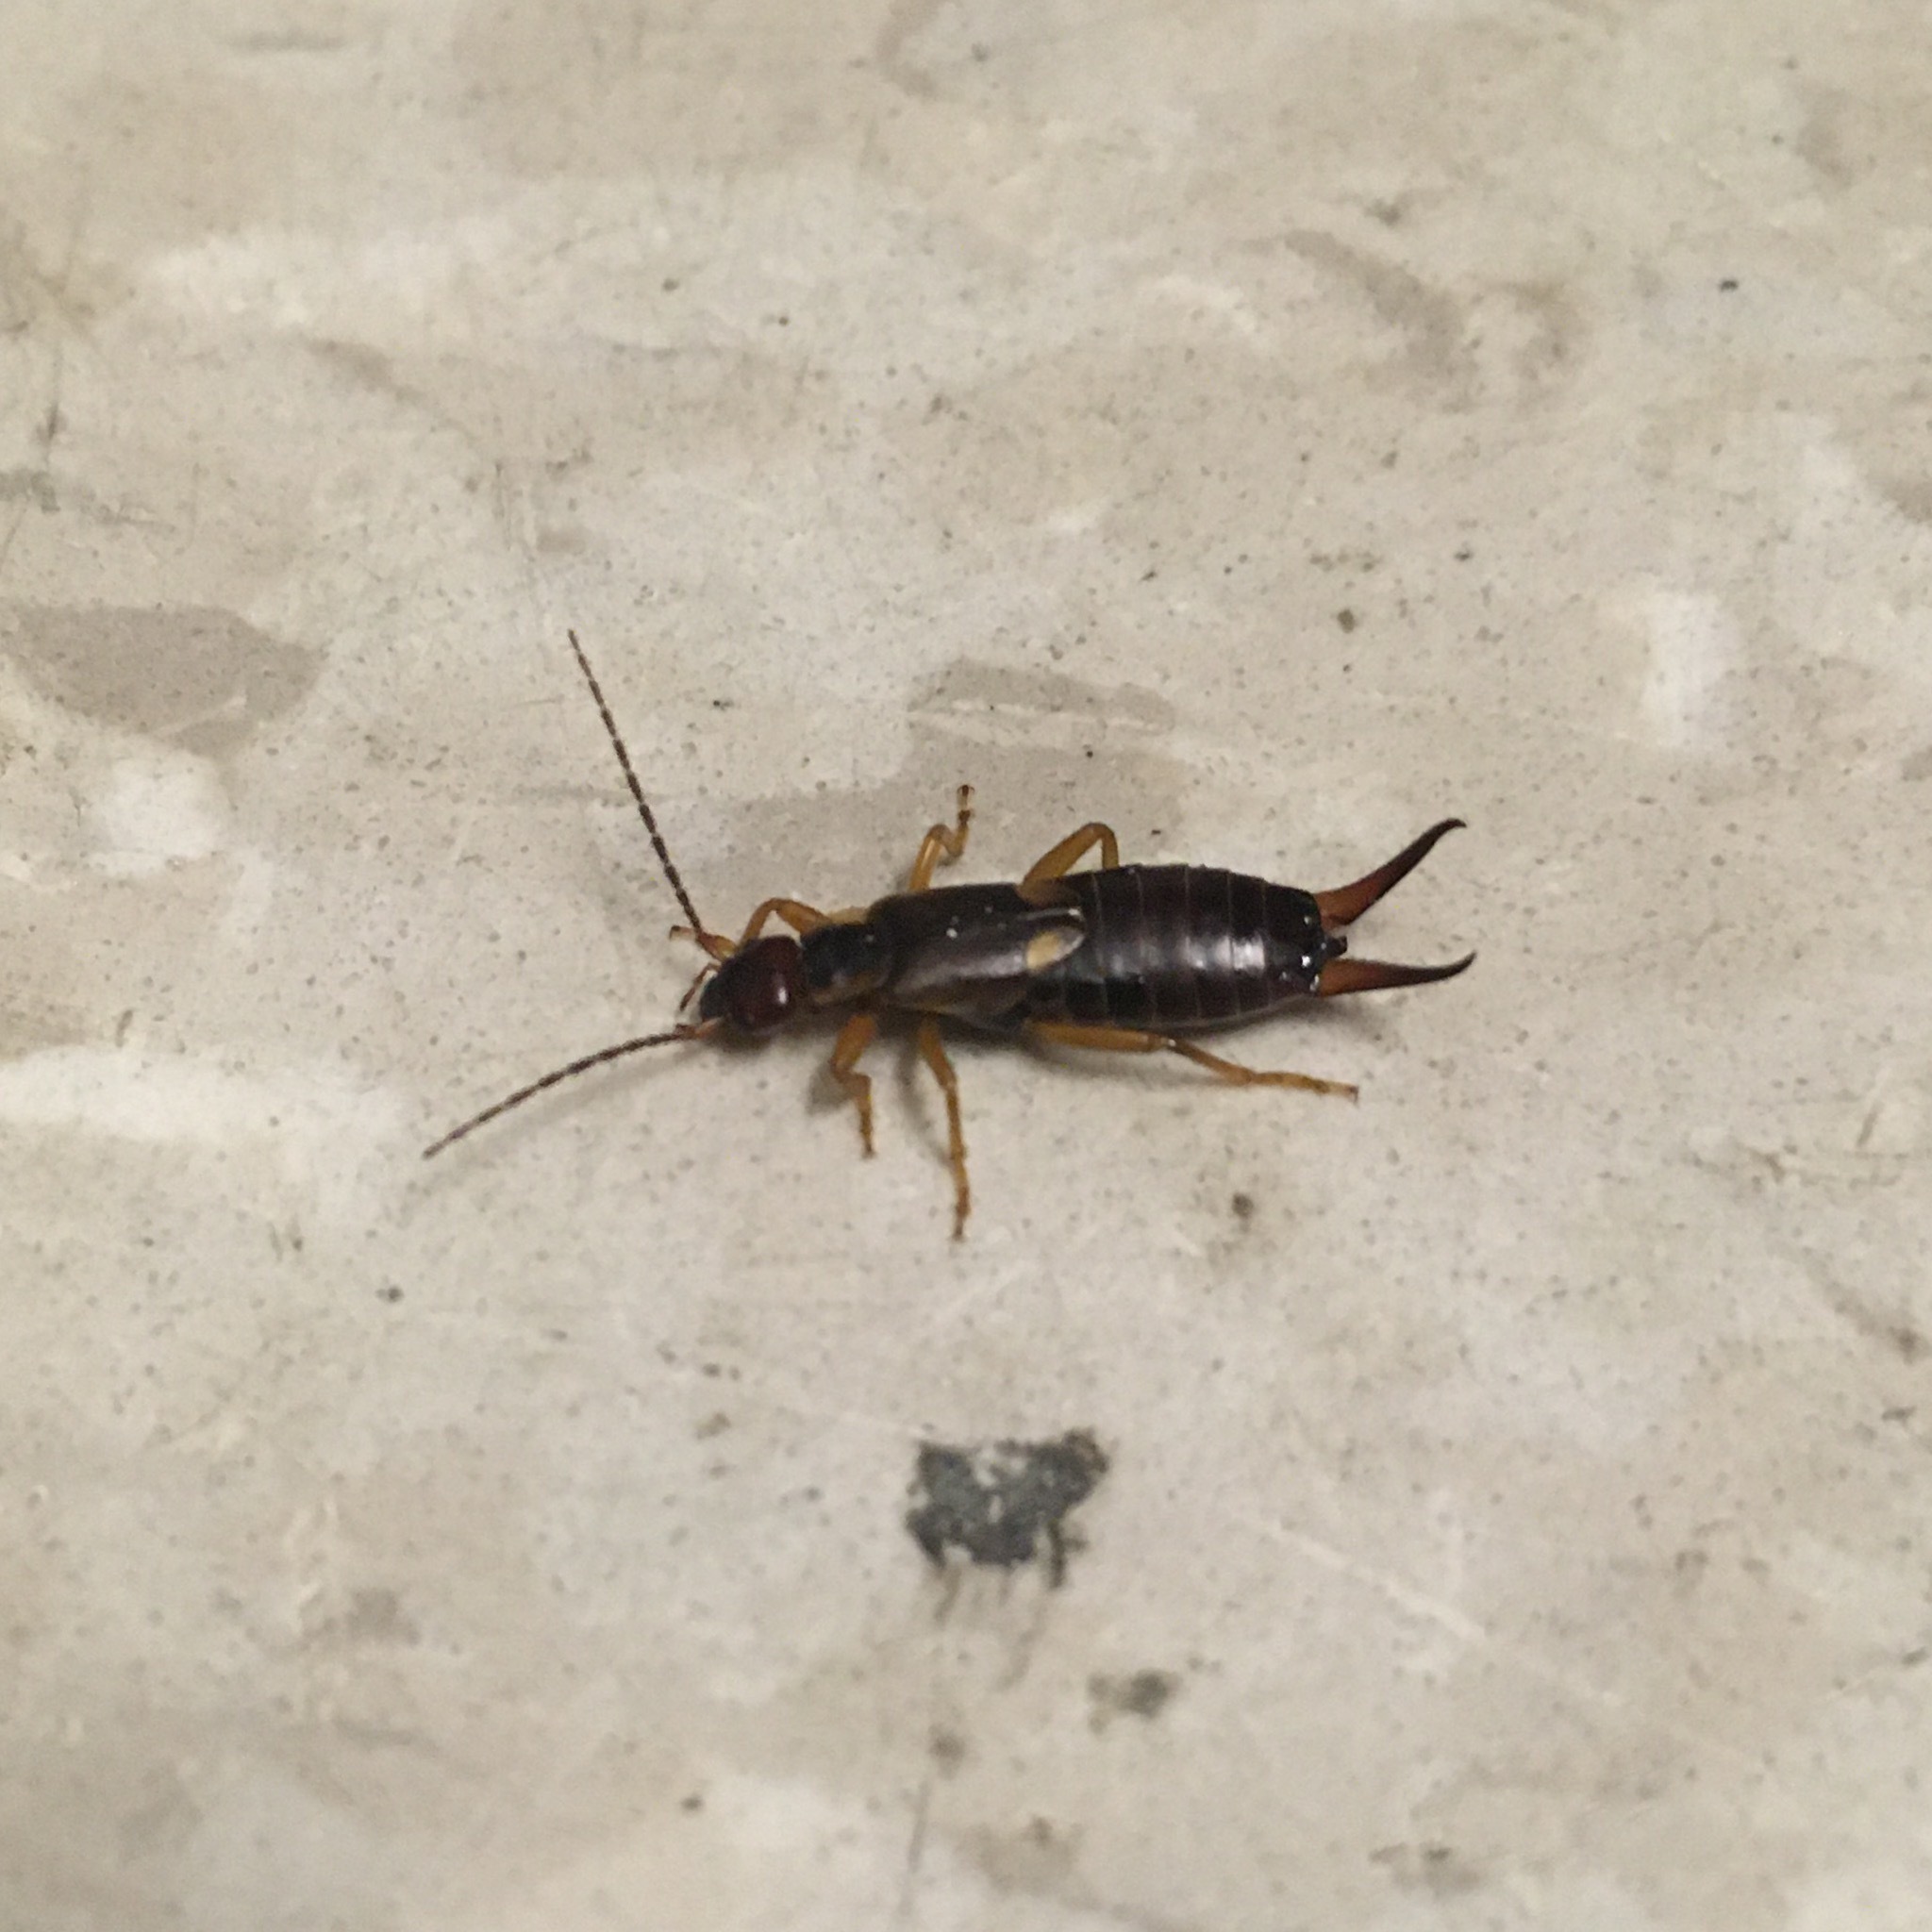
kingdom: Animalia
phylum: Arthropoda
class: Insecta
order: Dermaptera
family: Forficulidae
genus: Forficula
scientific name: Forficula
